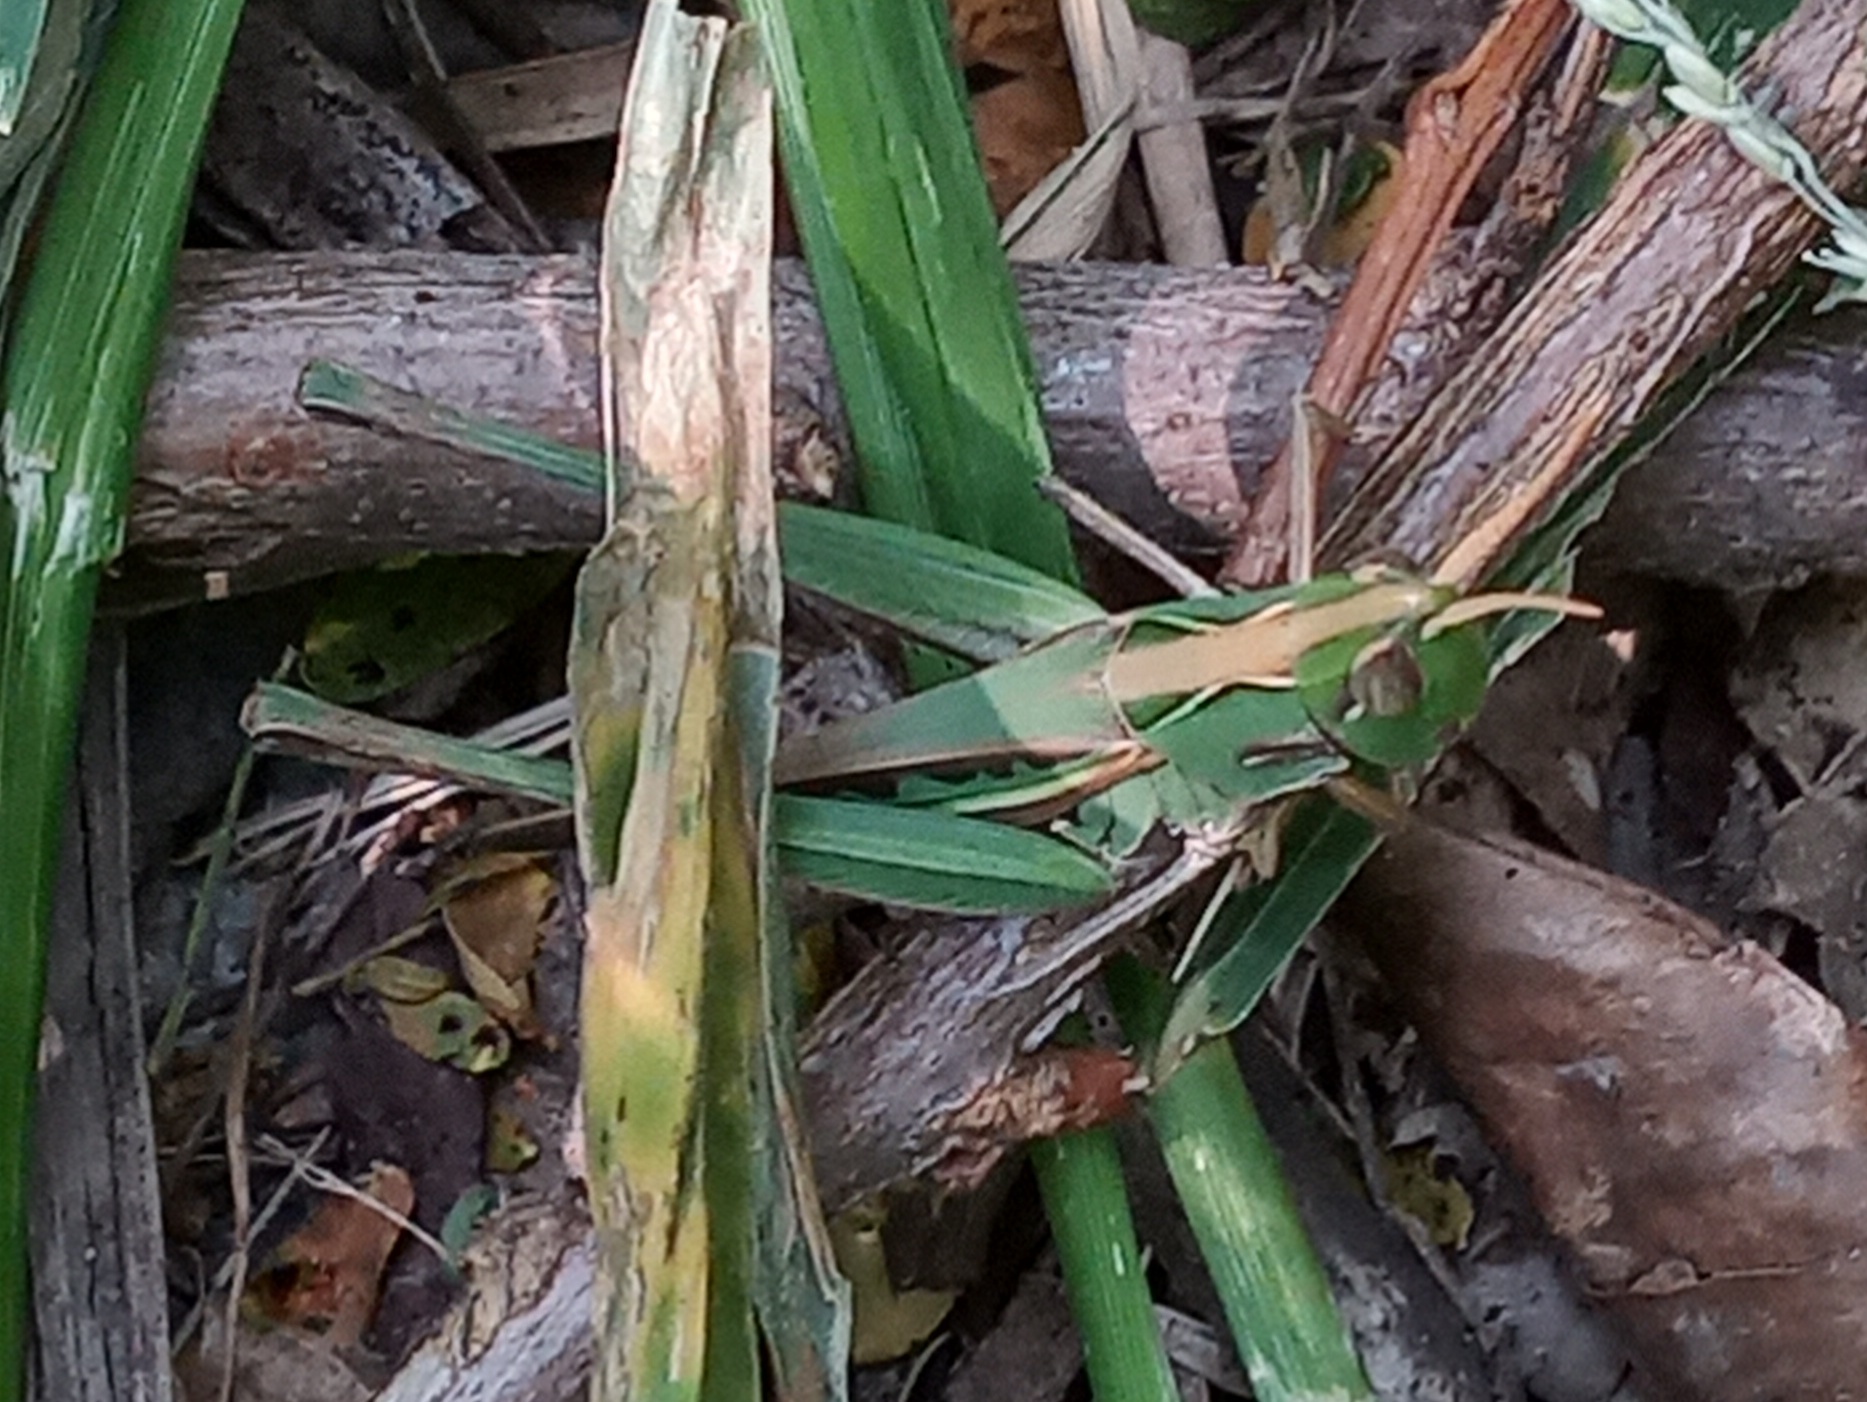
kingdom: Animalia
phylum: Arthropoda
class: Insecta
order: Orthoptera
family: Acrididae
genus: Syrbula
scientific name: Syrbula montezuma
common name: Montezuma's grasshopper
